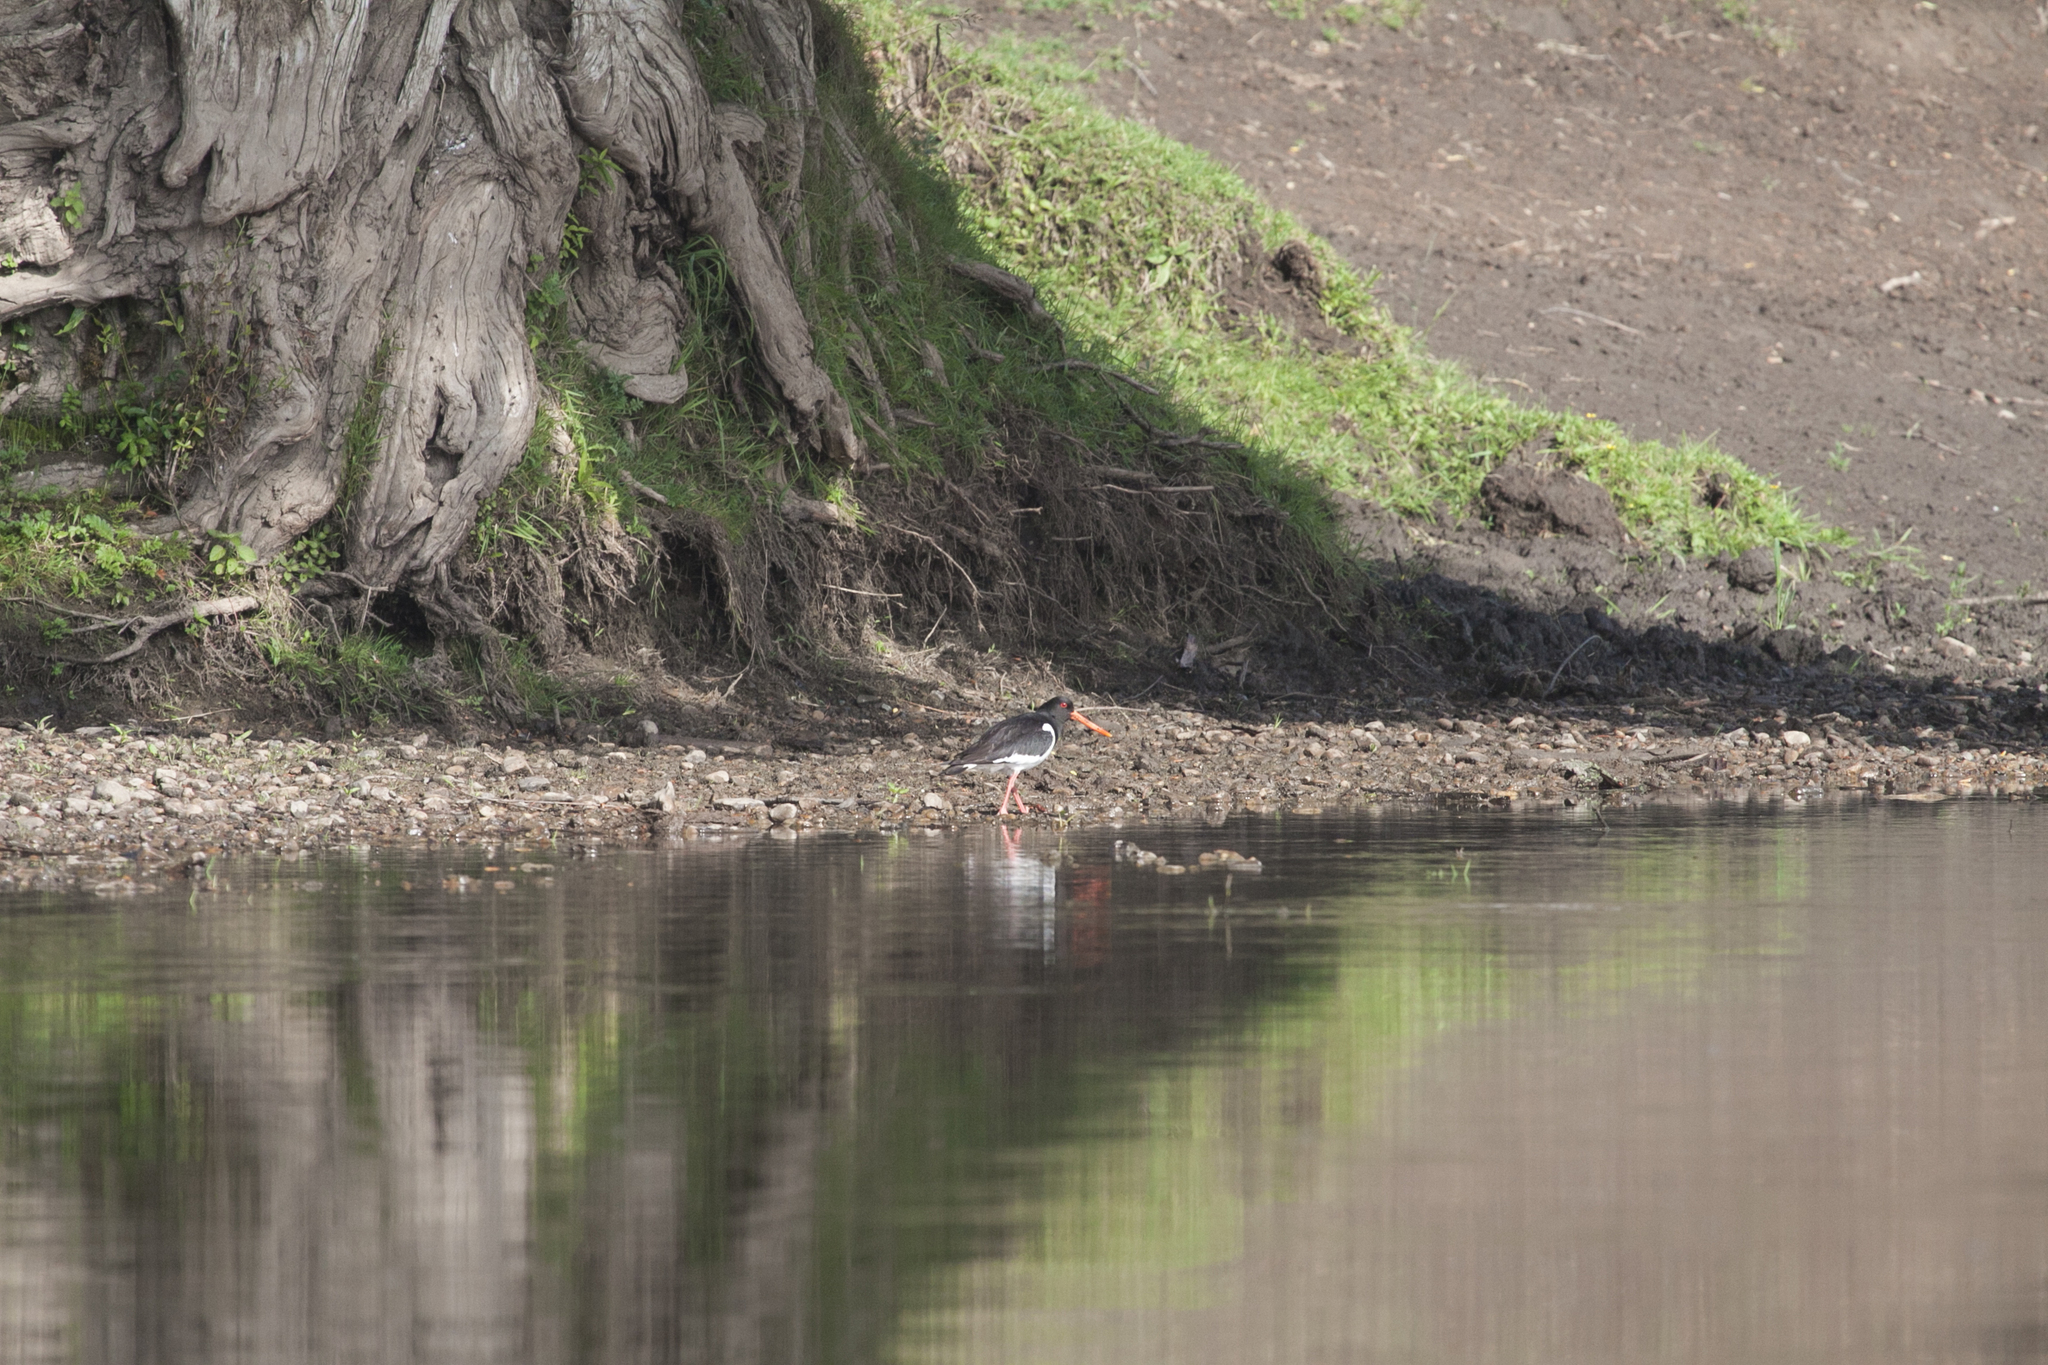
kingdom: Animalia
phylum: Chordata
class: Aves
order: Charadriiformes
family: Haematopodidae
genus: Haematopus
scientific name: Haematopus ostralegus
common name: Eurasian oystercatcher
